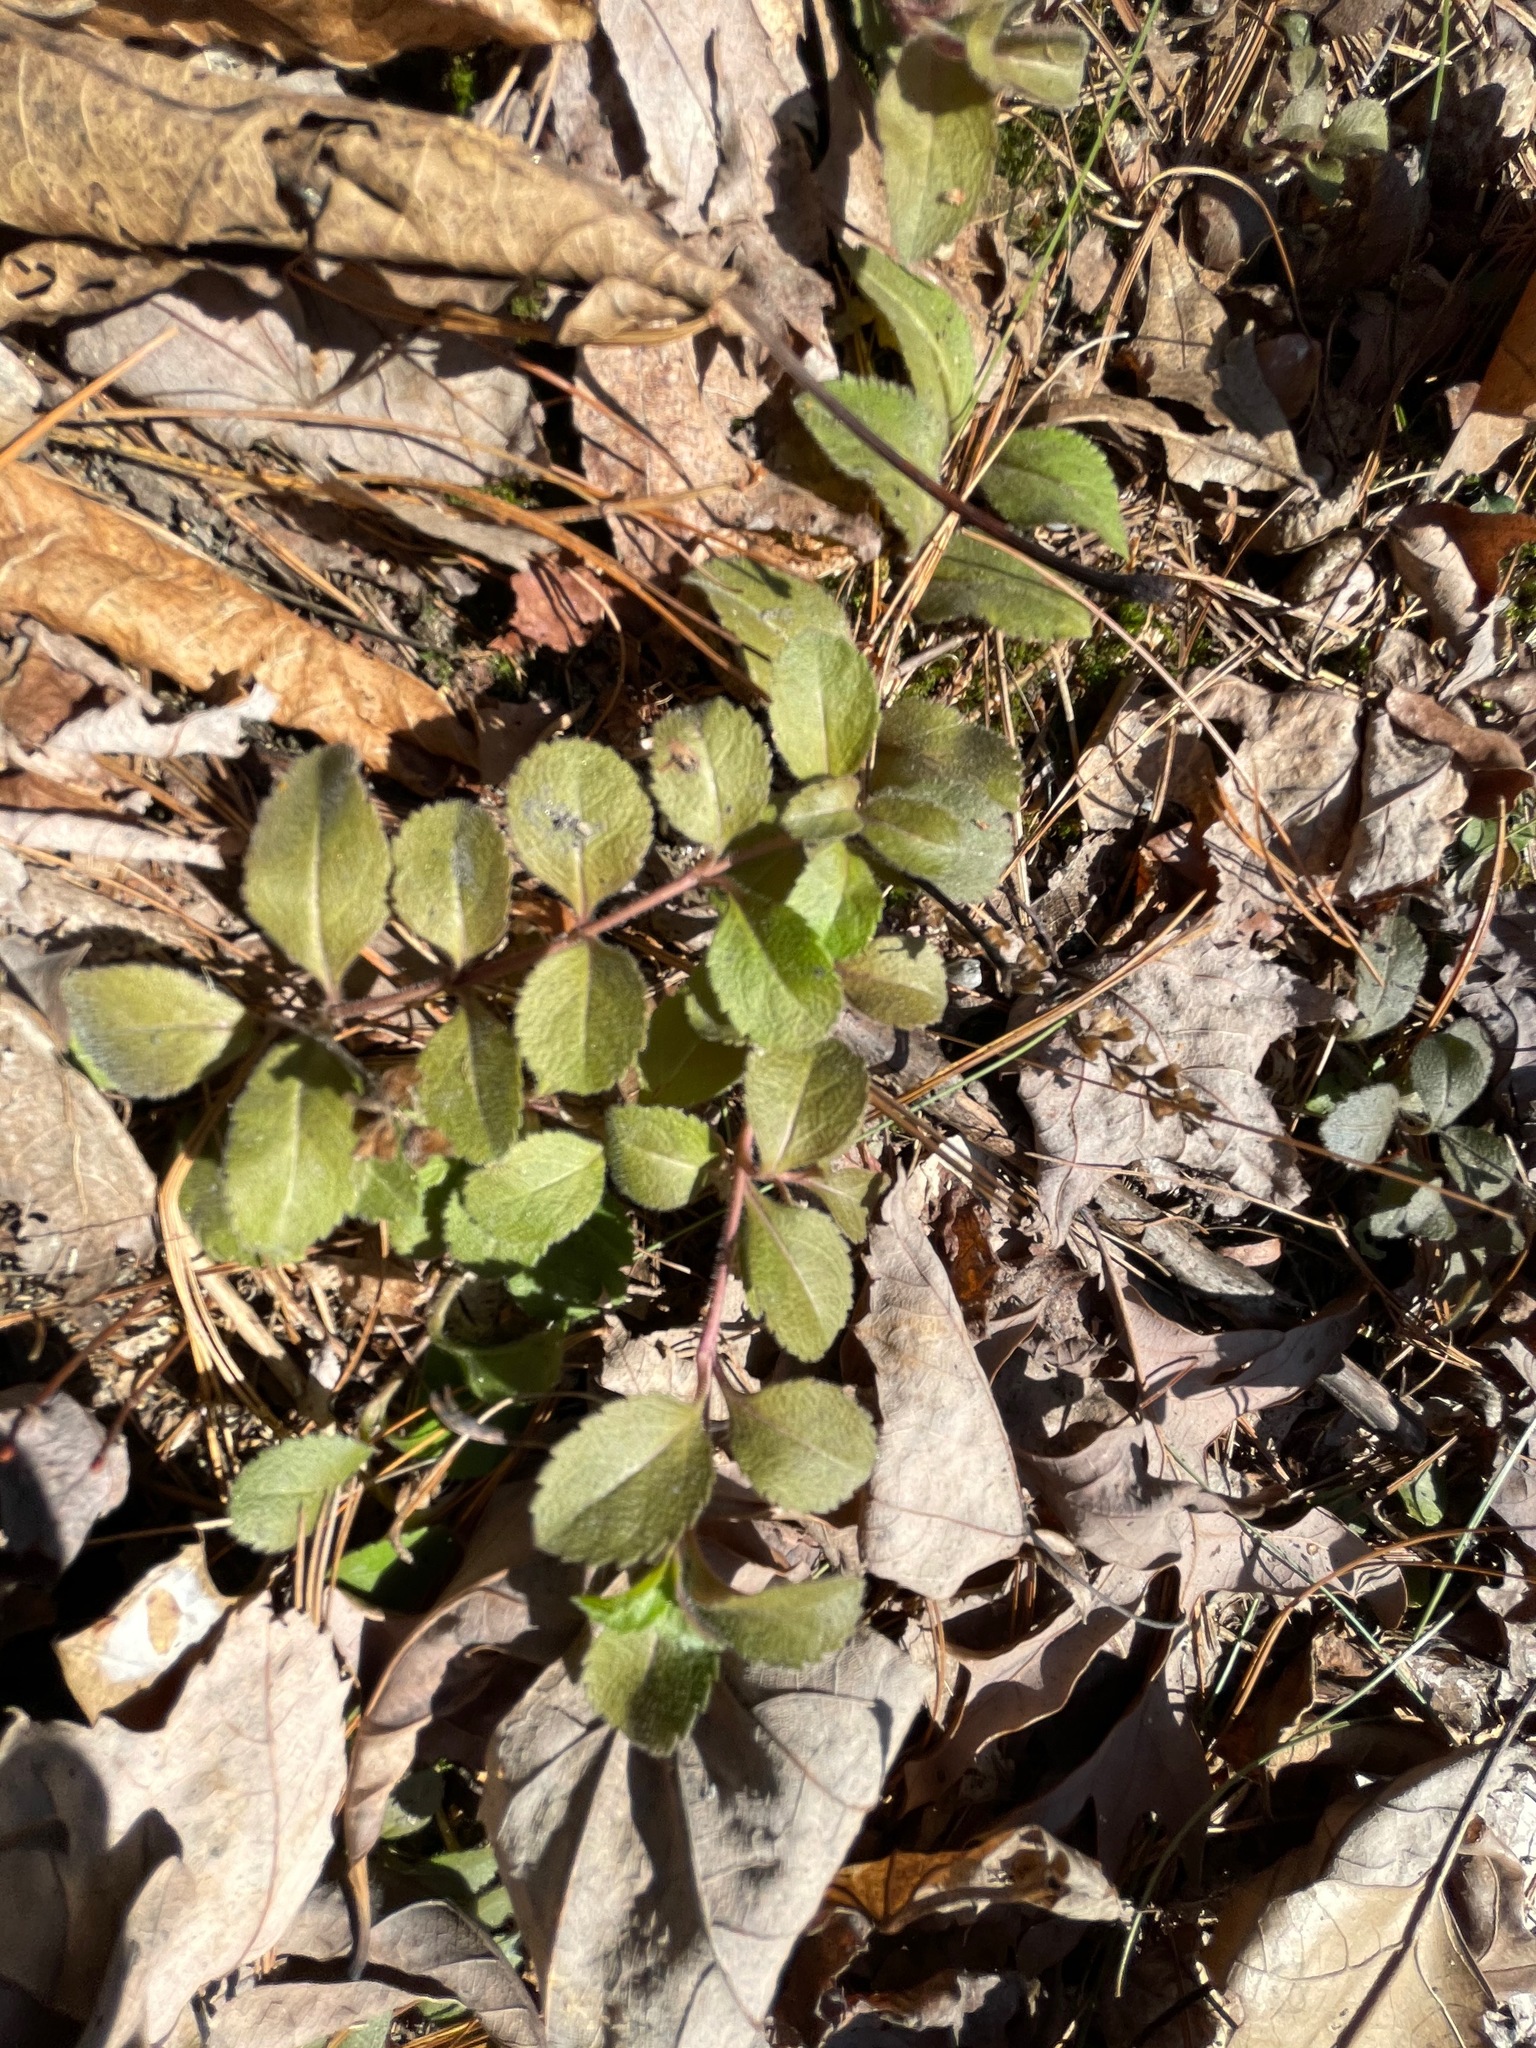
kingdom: Plantae
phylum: Tracheophyta
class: Magnoliopsida
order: Lamiales
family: Plantaginaceae
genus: Veronica
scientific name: Veronica officinalis
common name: Common speedwell
